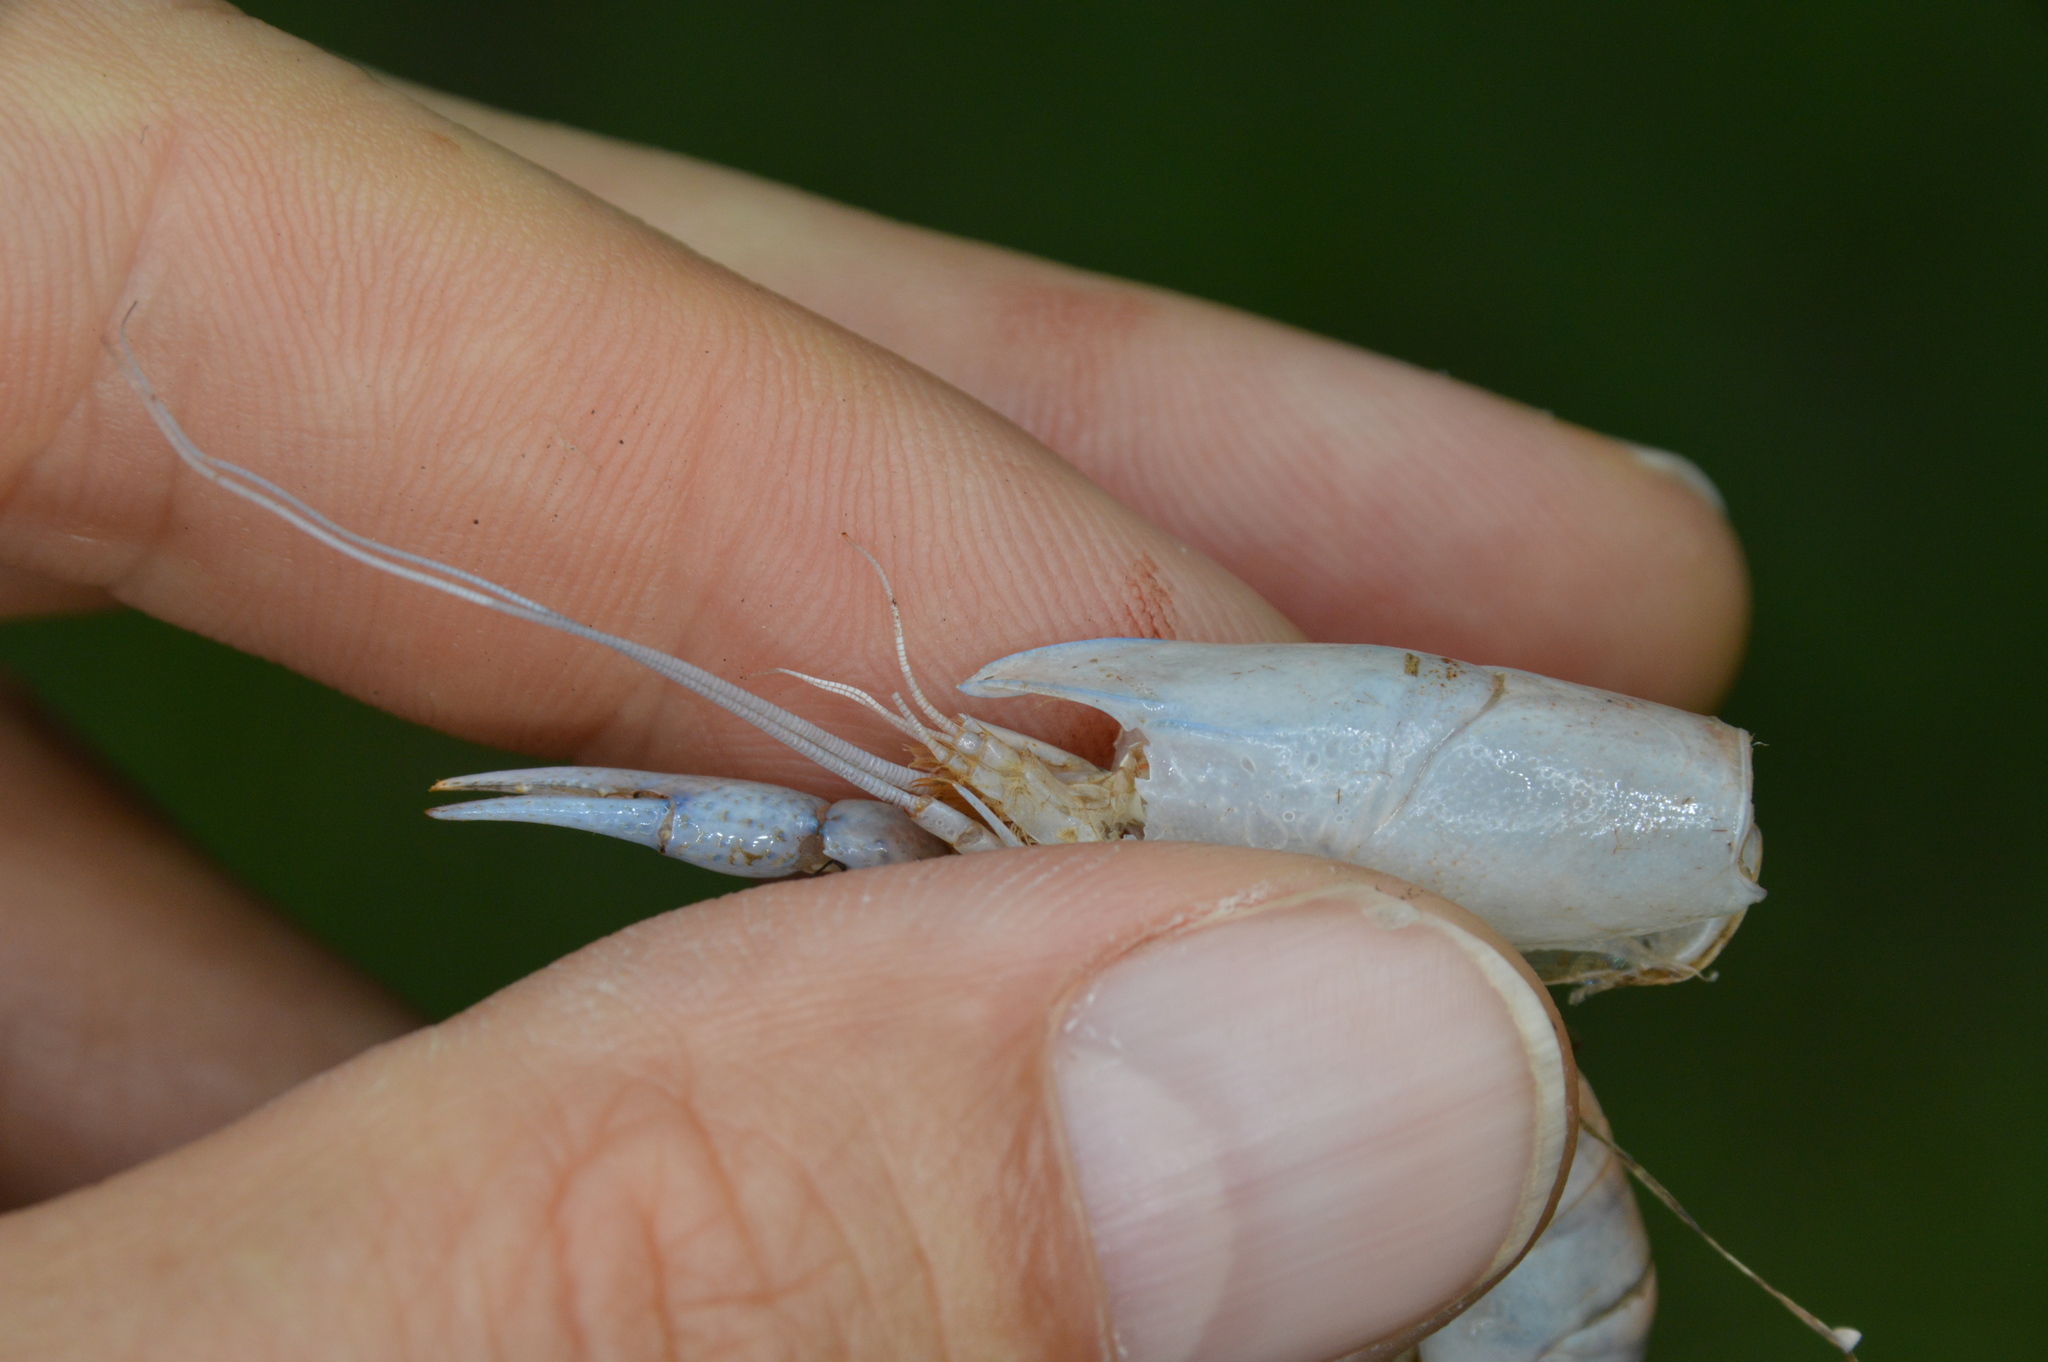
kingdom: Animalia
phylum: Arthropoda
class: Malacostraca
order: Decapoda
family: Cambaridae
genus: Procambarus
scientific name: Procambarus albaughi
